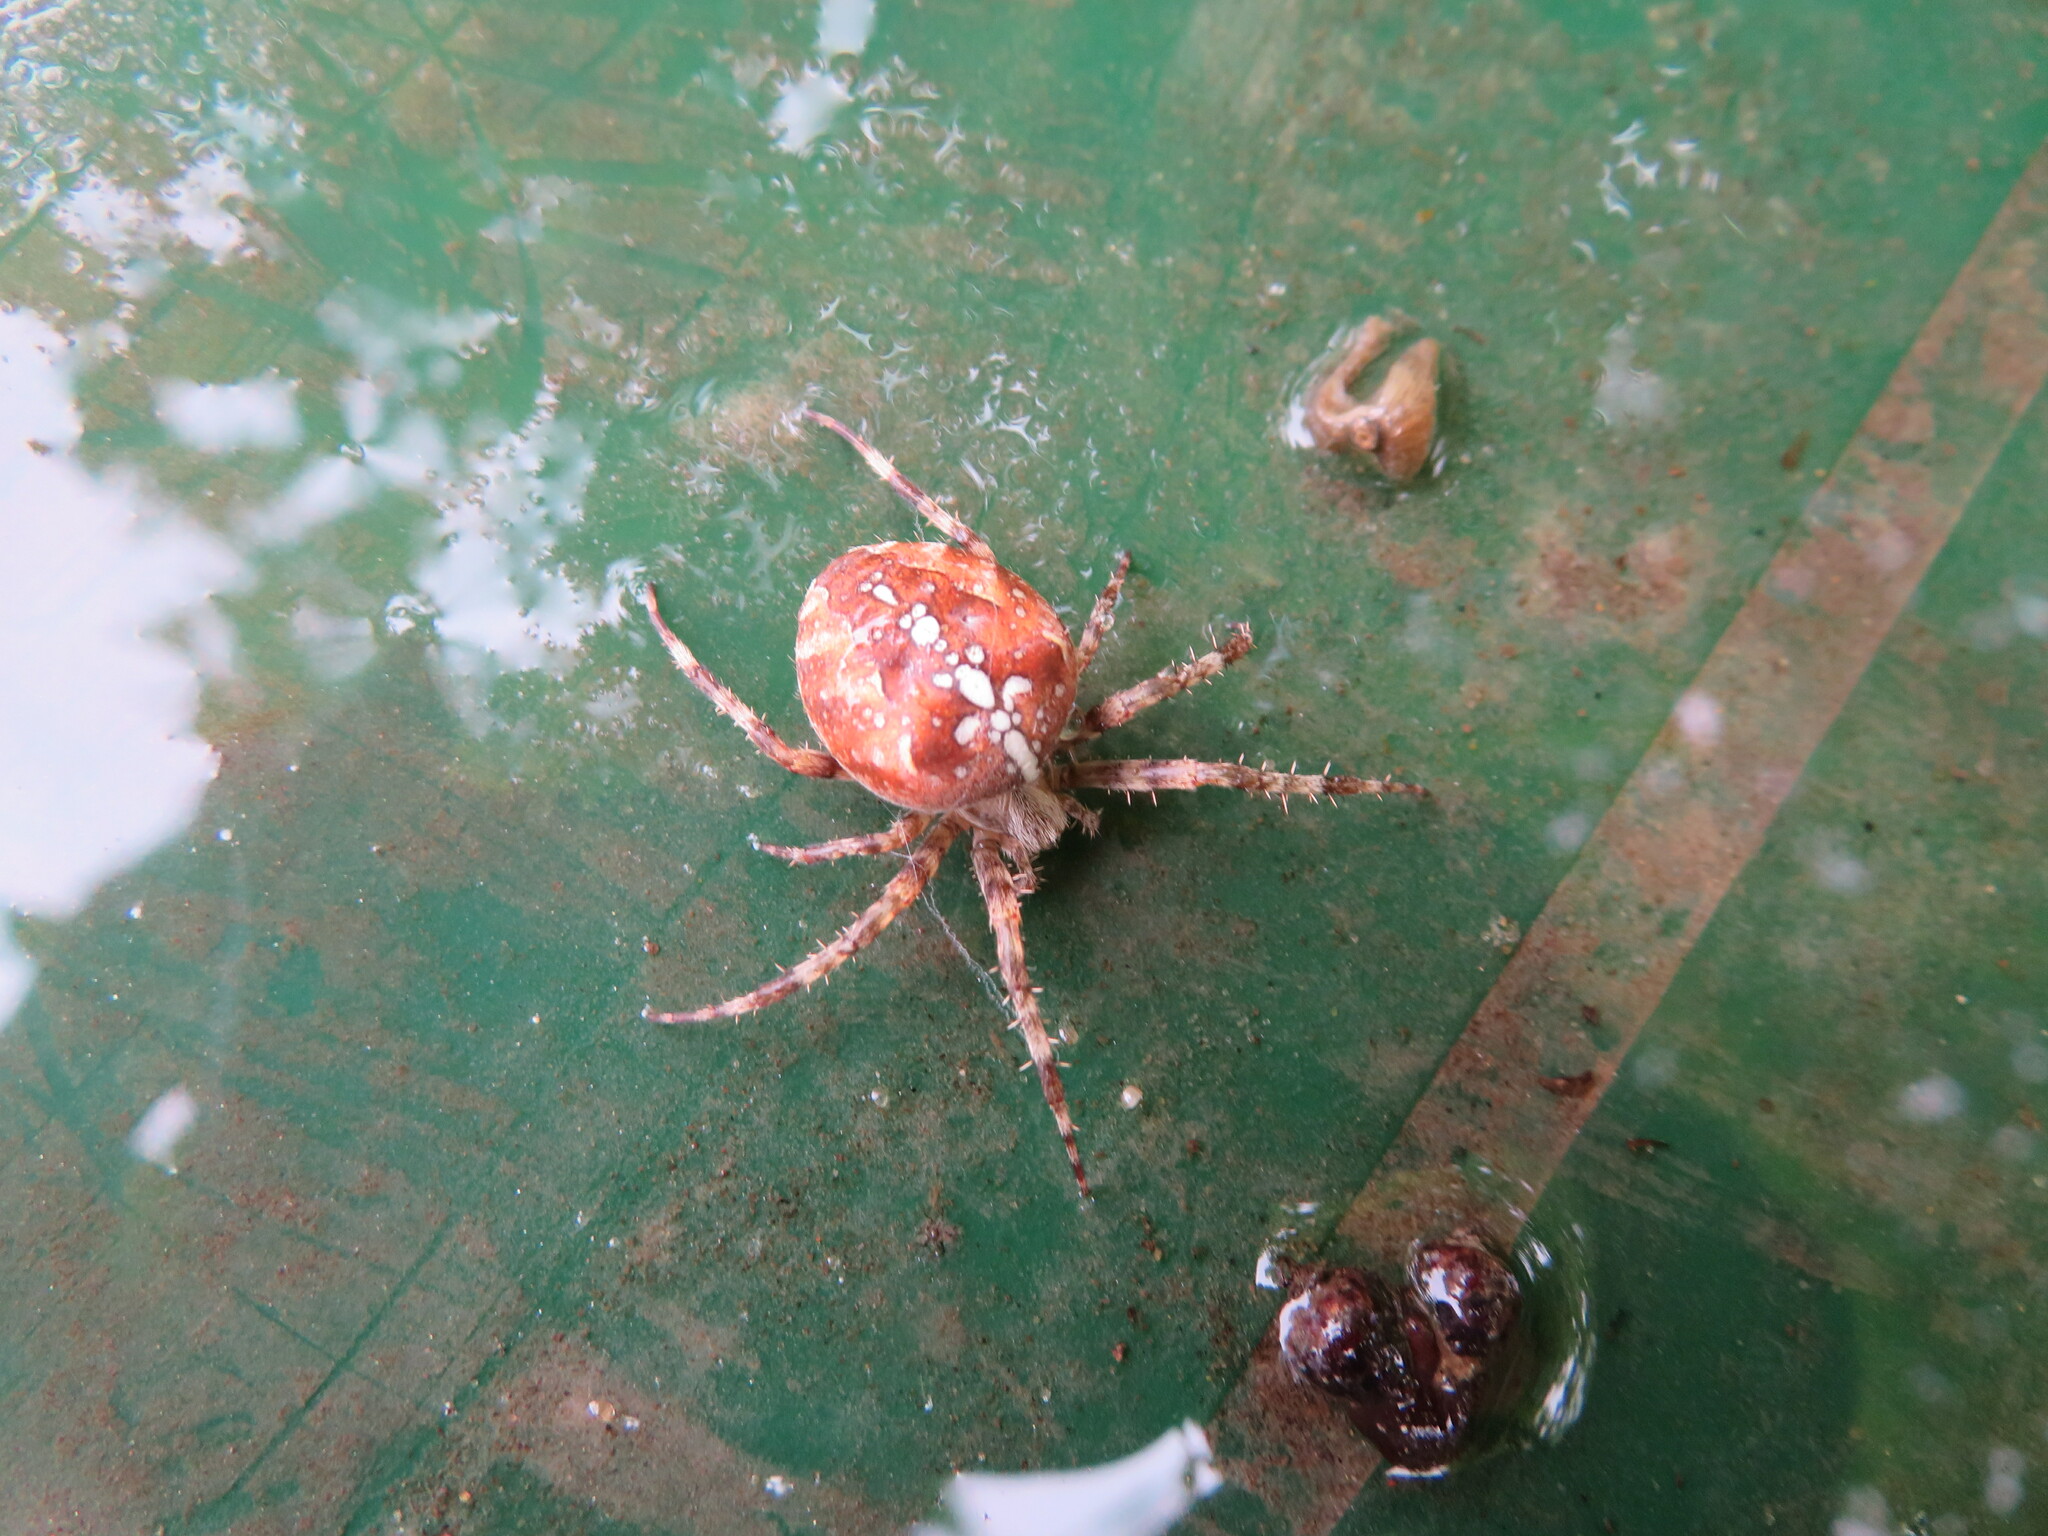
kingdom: Animalia
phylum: Arthropoda
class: Arachnida
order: Araneae
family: Araneidae
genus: Araneus
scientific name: Araneus diadematus
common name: Cross orbweaver
